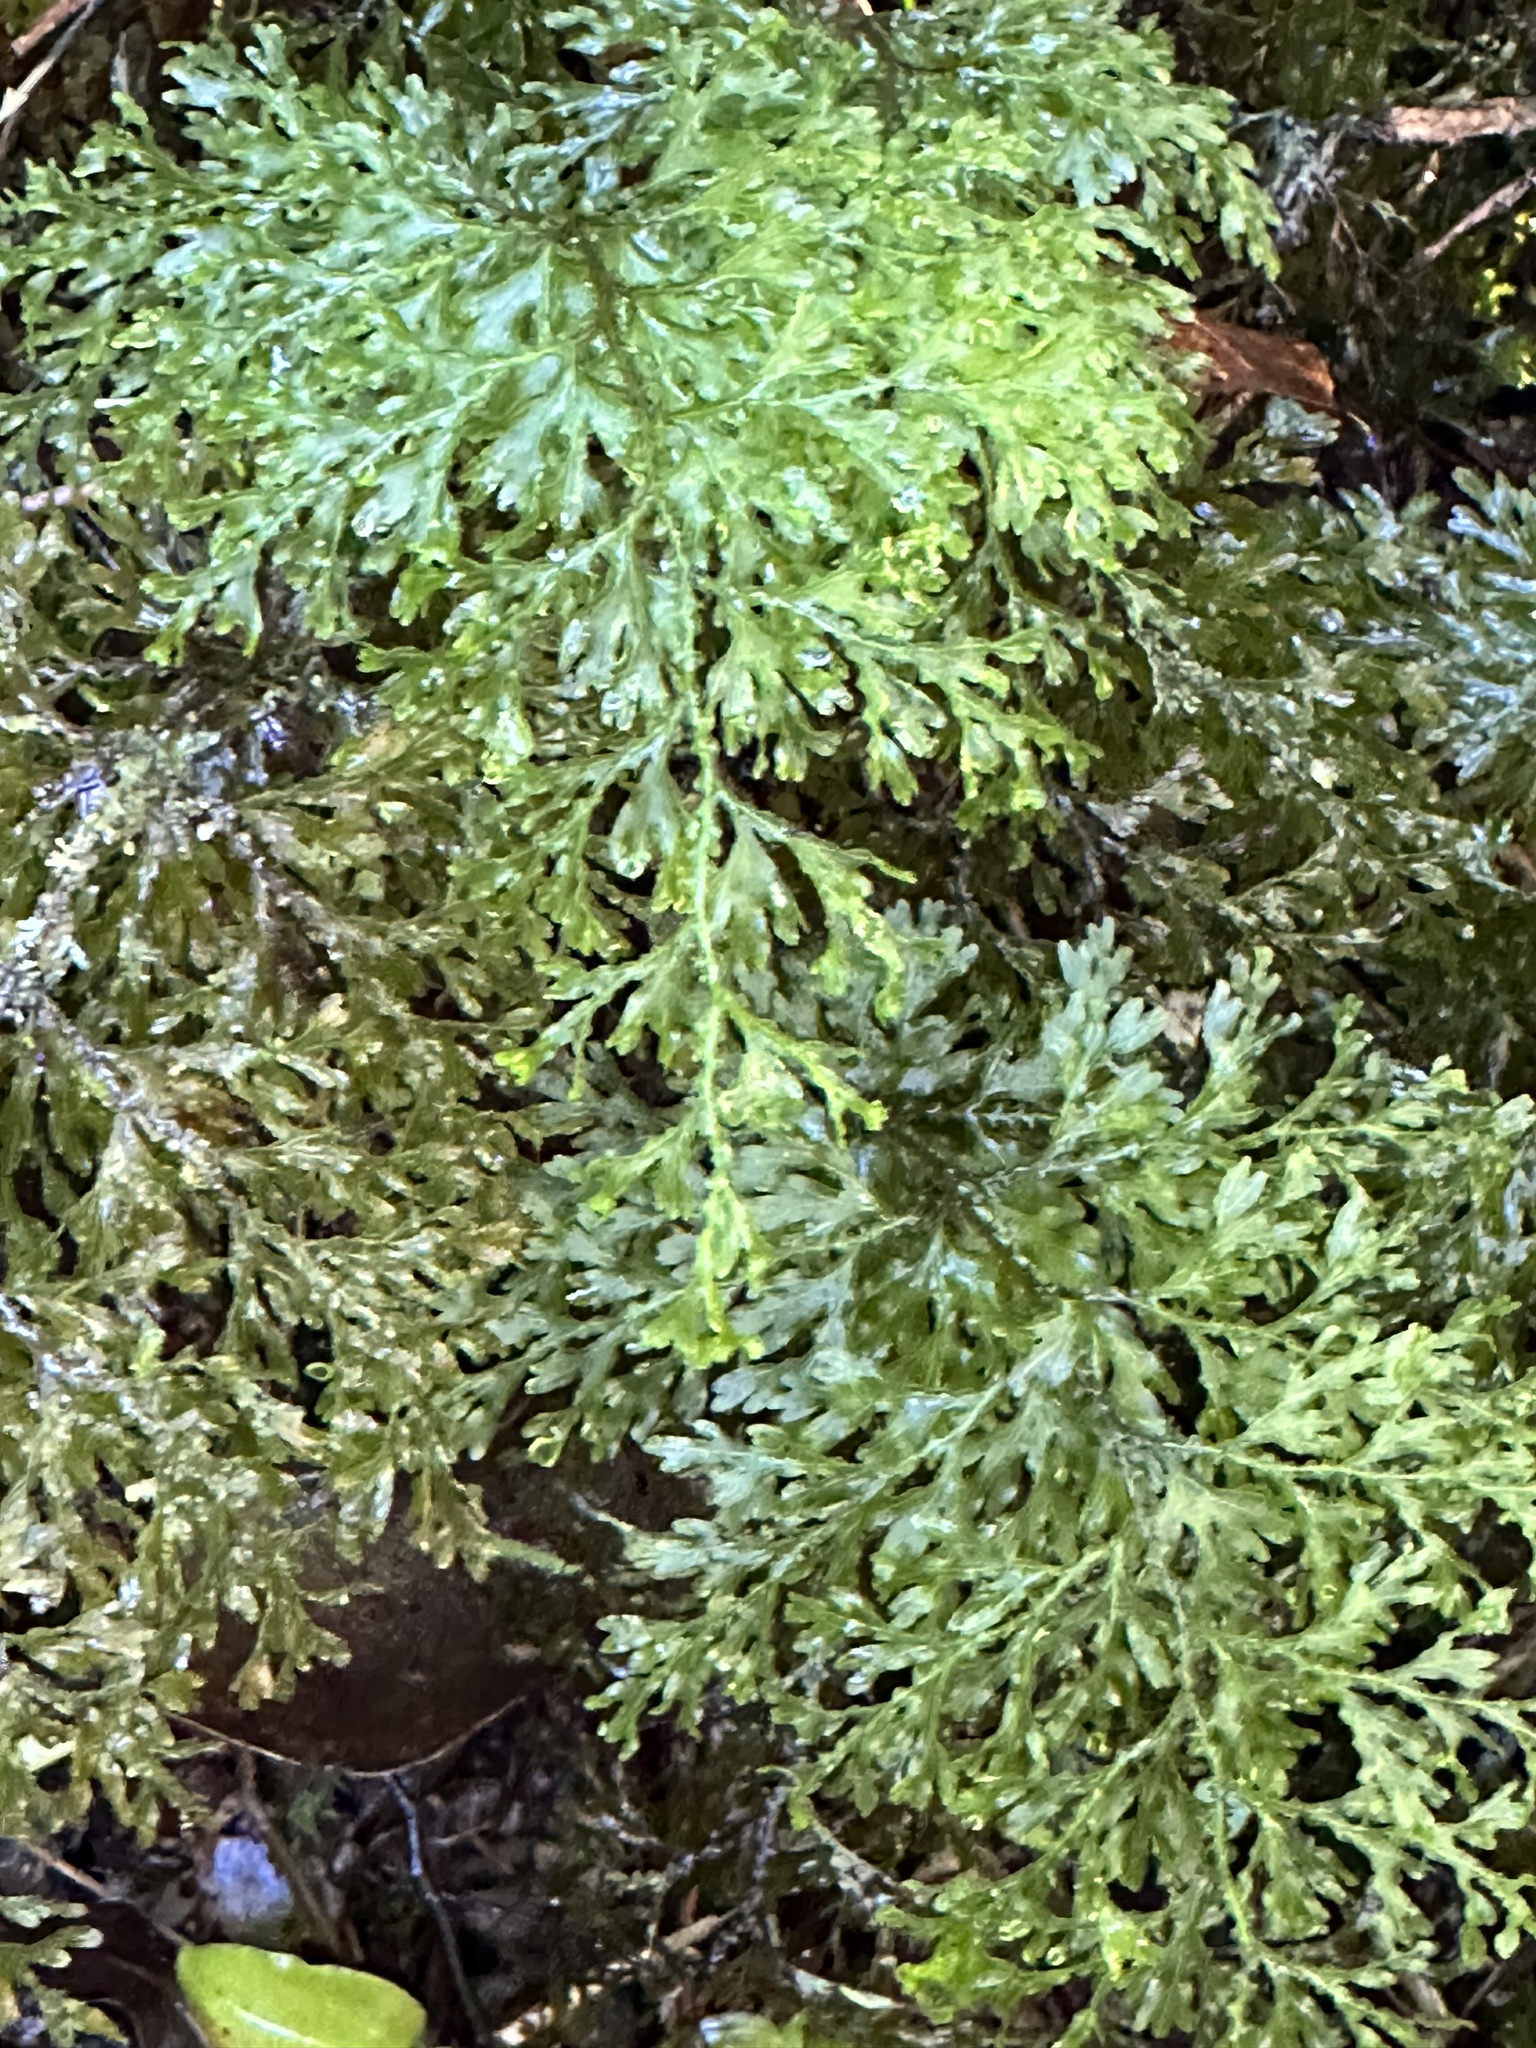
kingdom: Plantae
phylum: Tracheophyta
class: Polypodiopsida
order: Hymenophyllales
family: Hymenophyllaceae
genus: Hymenophyllum
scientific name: Hymenophyllum flexuosum
